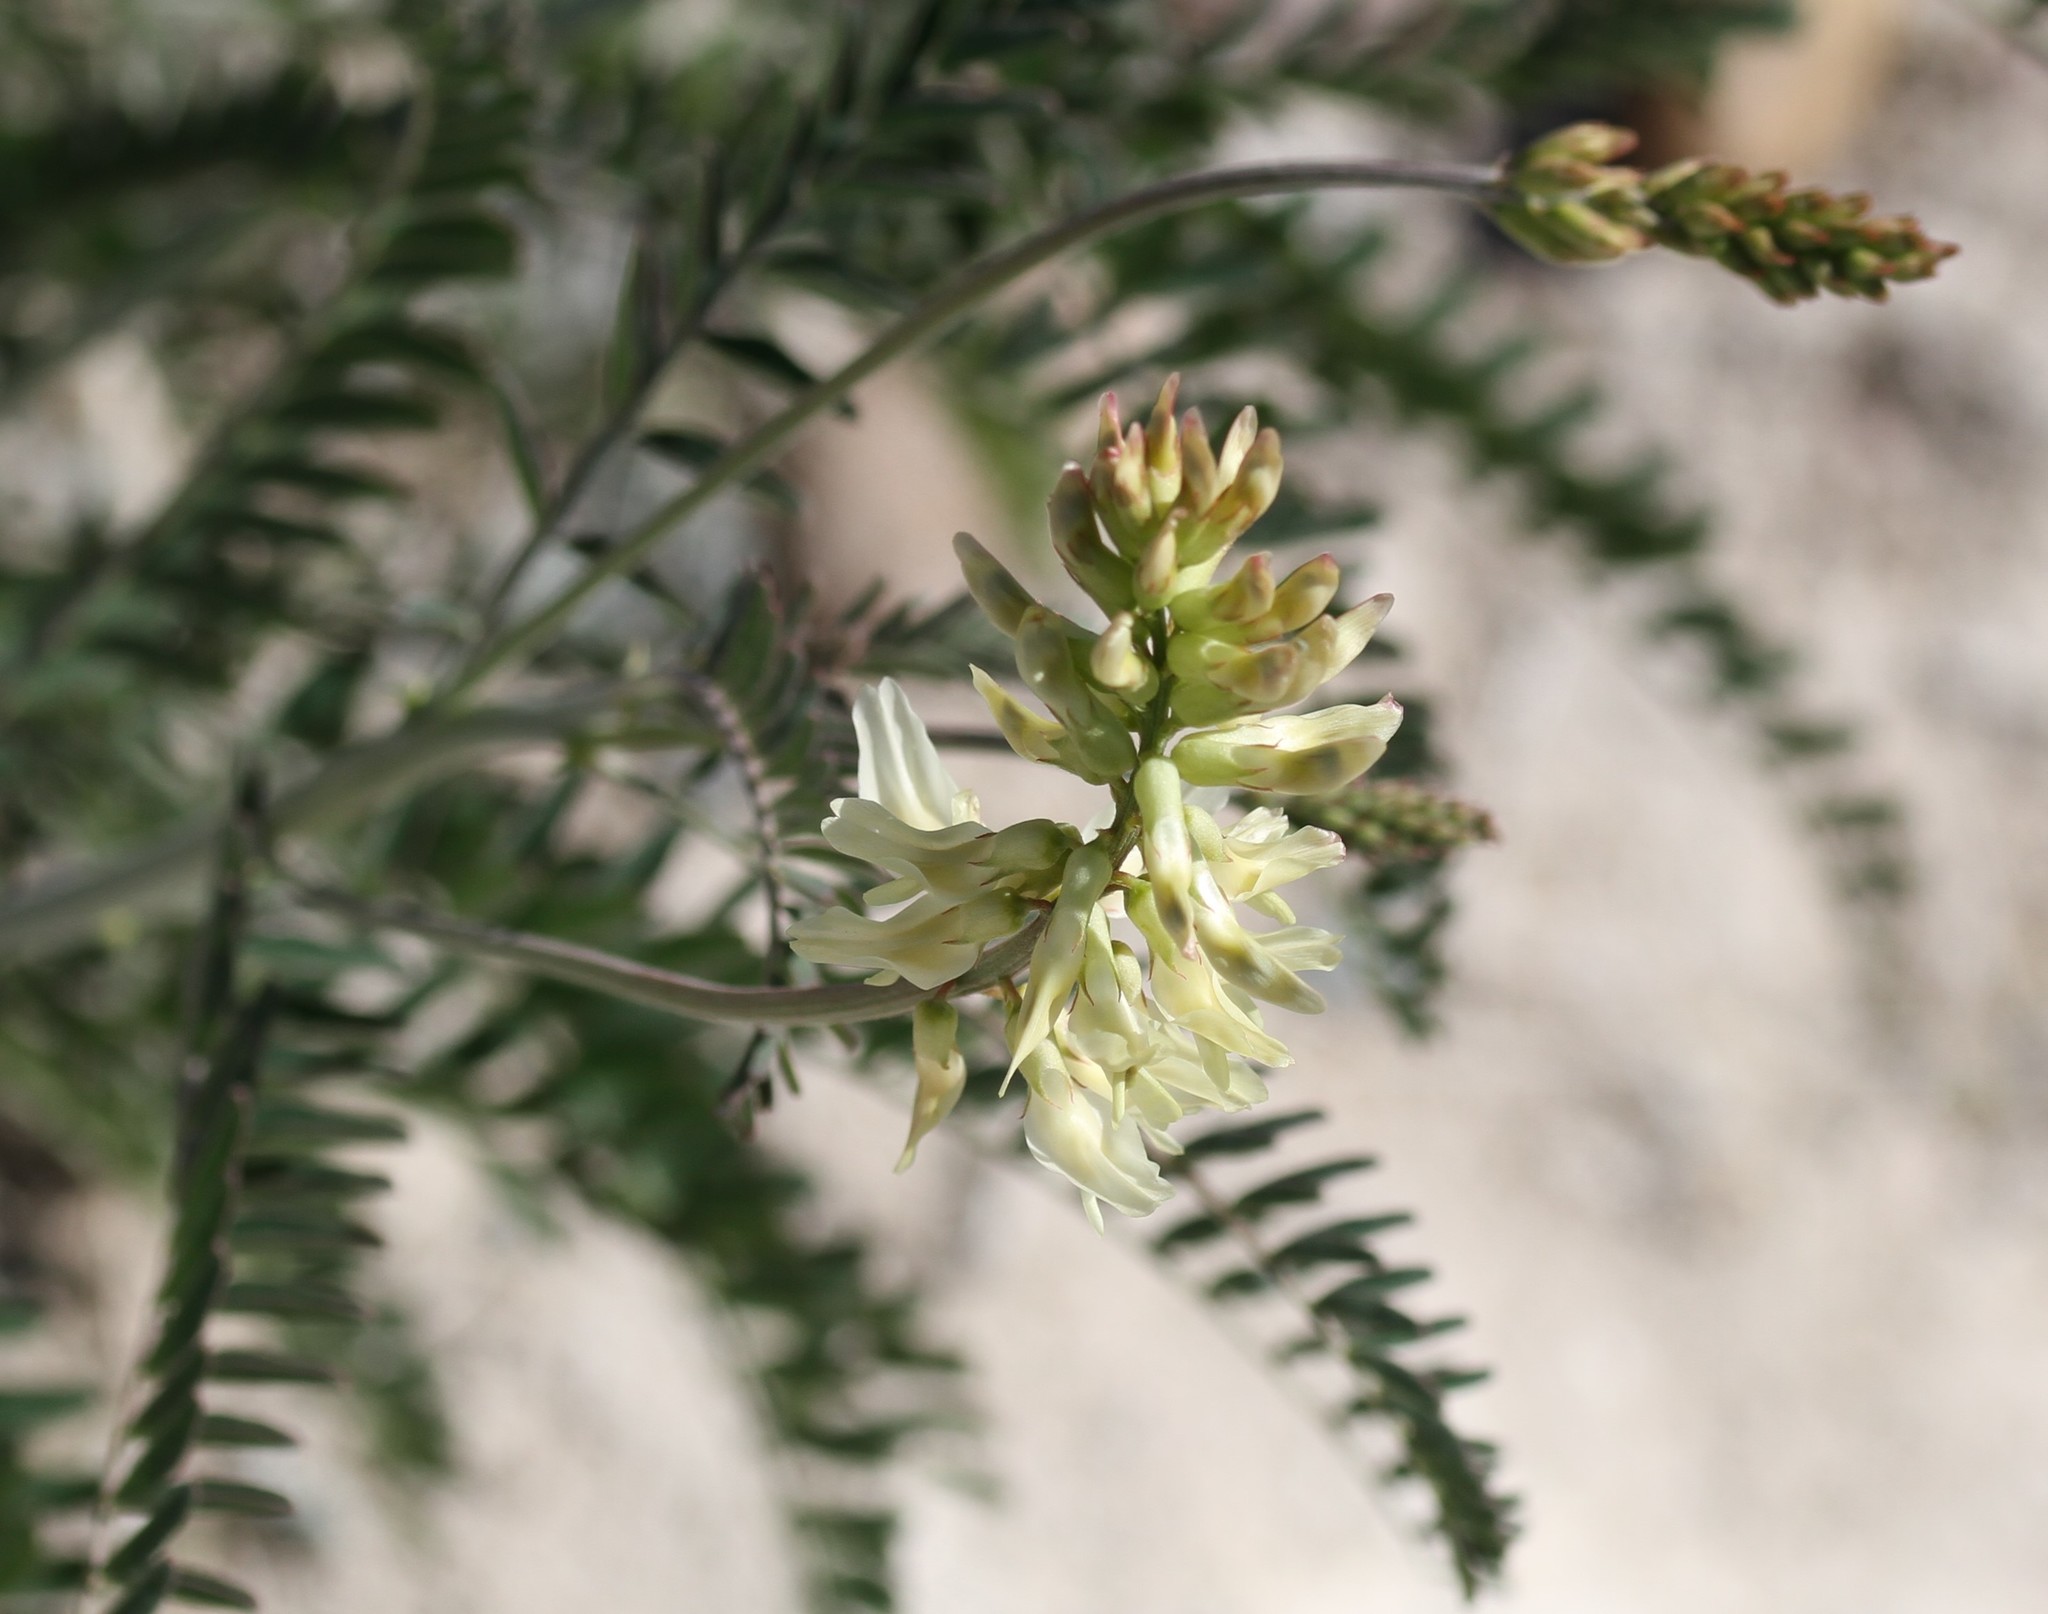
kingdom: Plantae
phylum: Tracheophyta
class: Magnoliopsida
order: Fabales
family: Fabaceae
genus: Astragalus
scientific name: Astragalus trichopodus
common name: Santa barbara milk-vetch
